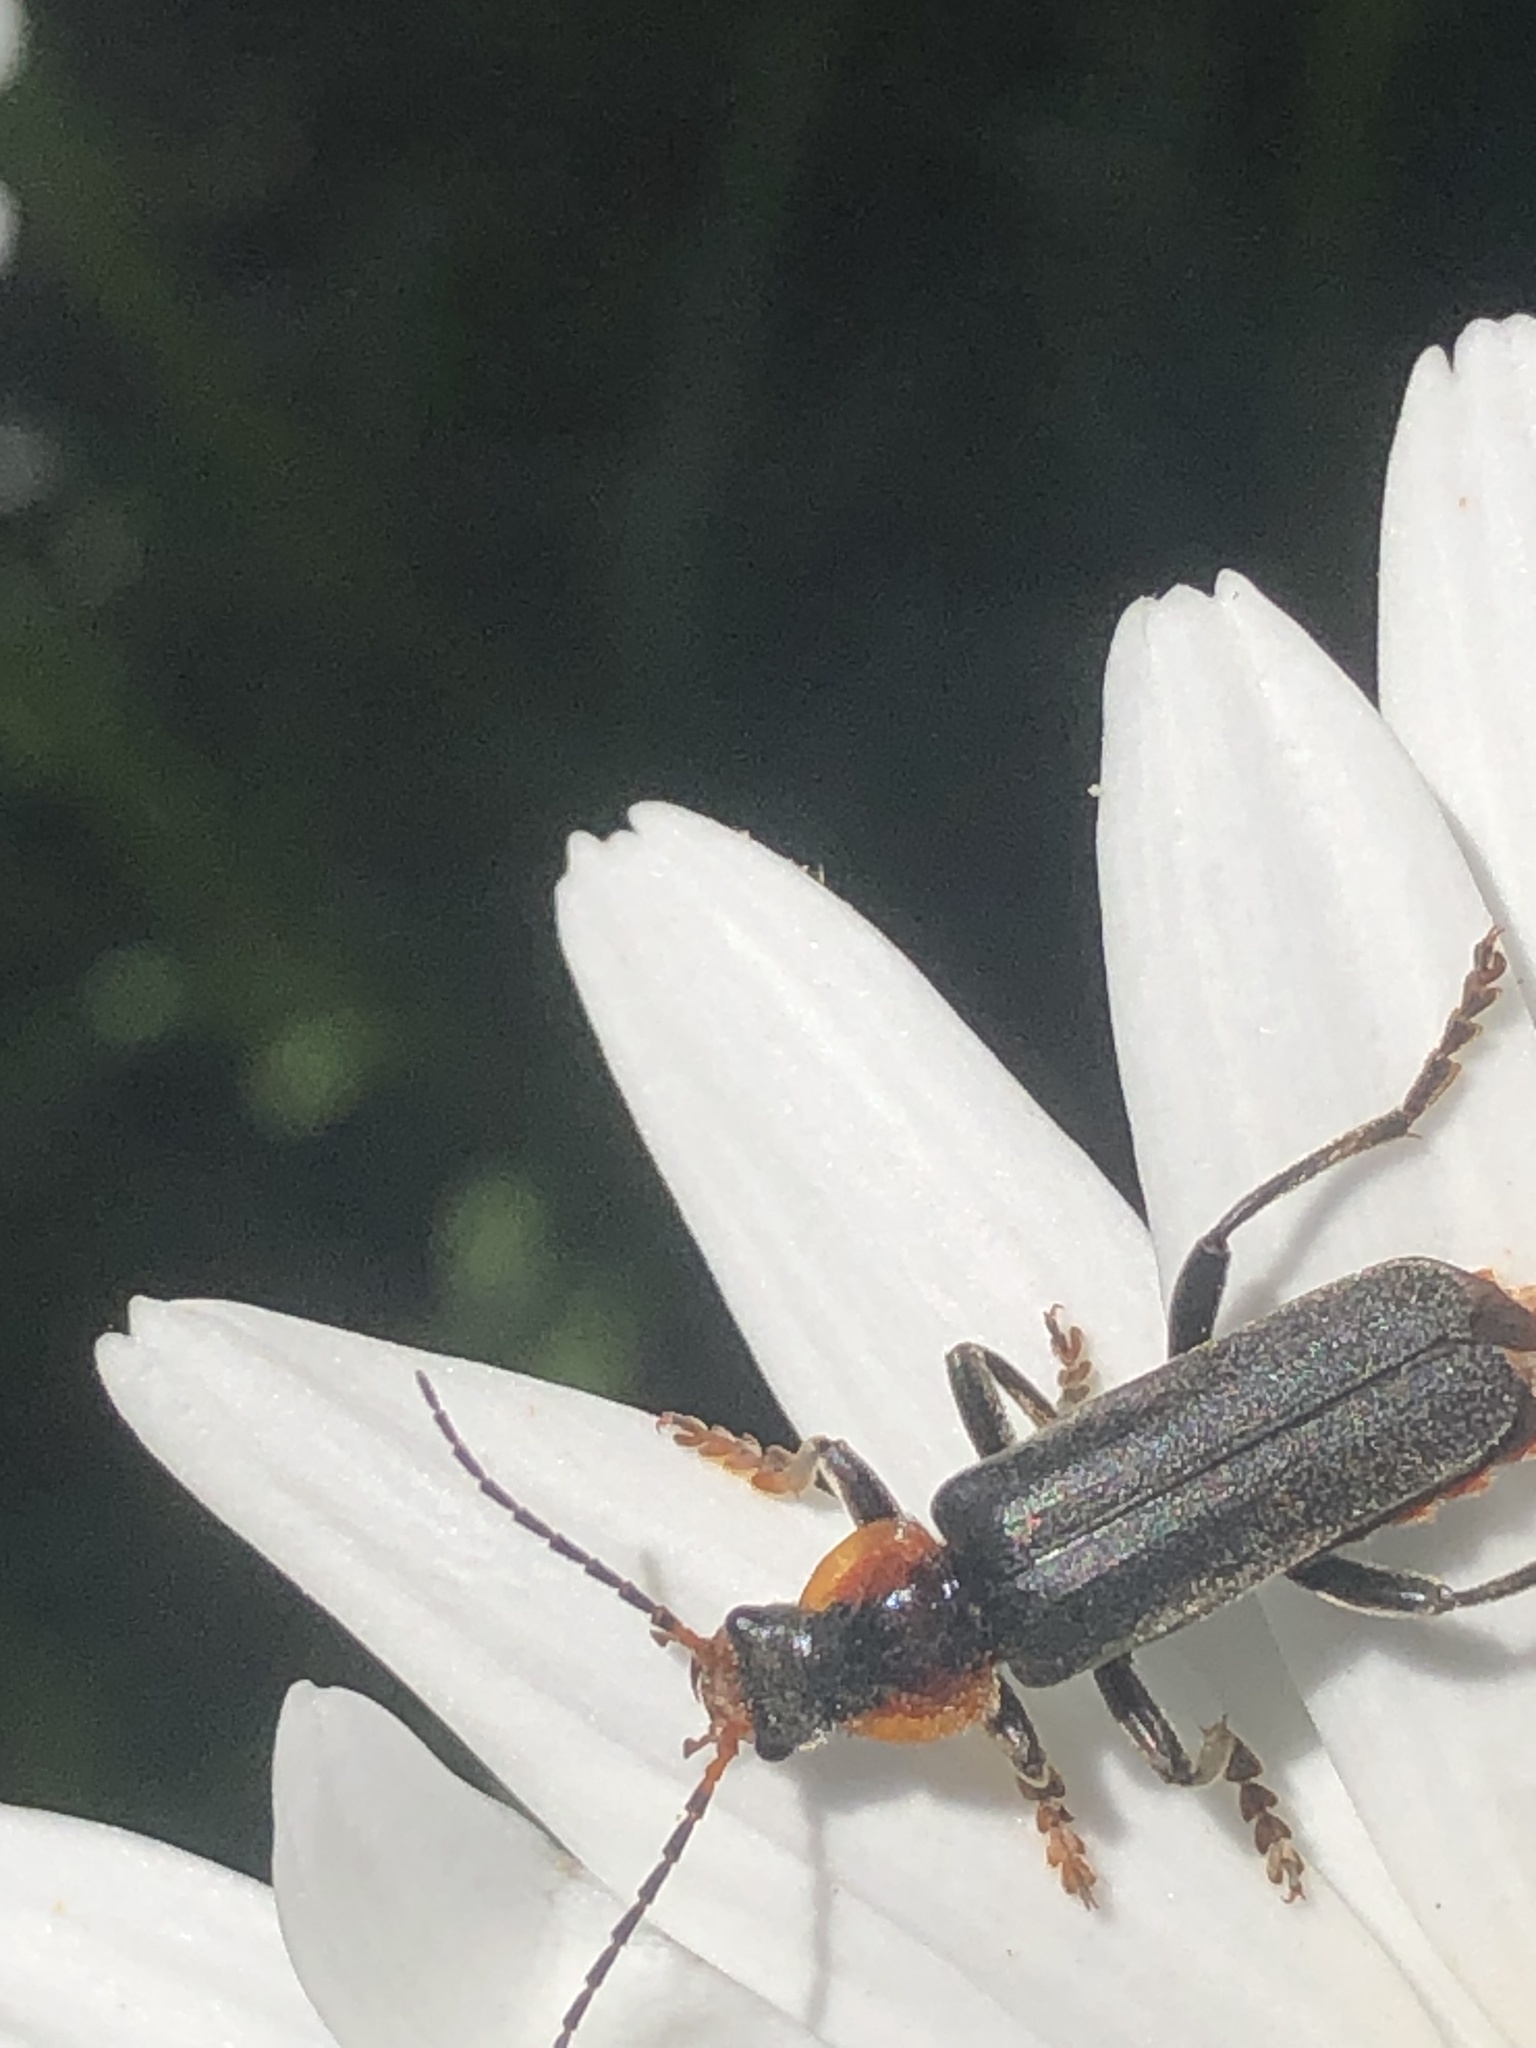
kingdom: Animalia
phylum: Arthropoda
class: Insecta
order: Coleoptera
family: Cantharidae
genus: Cantharis
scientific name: Cantharis fusca
